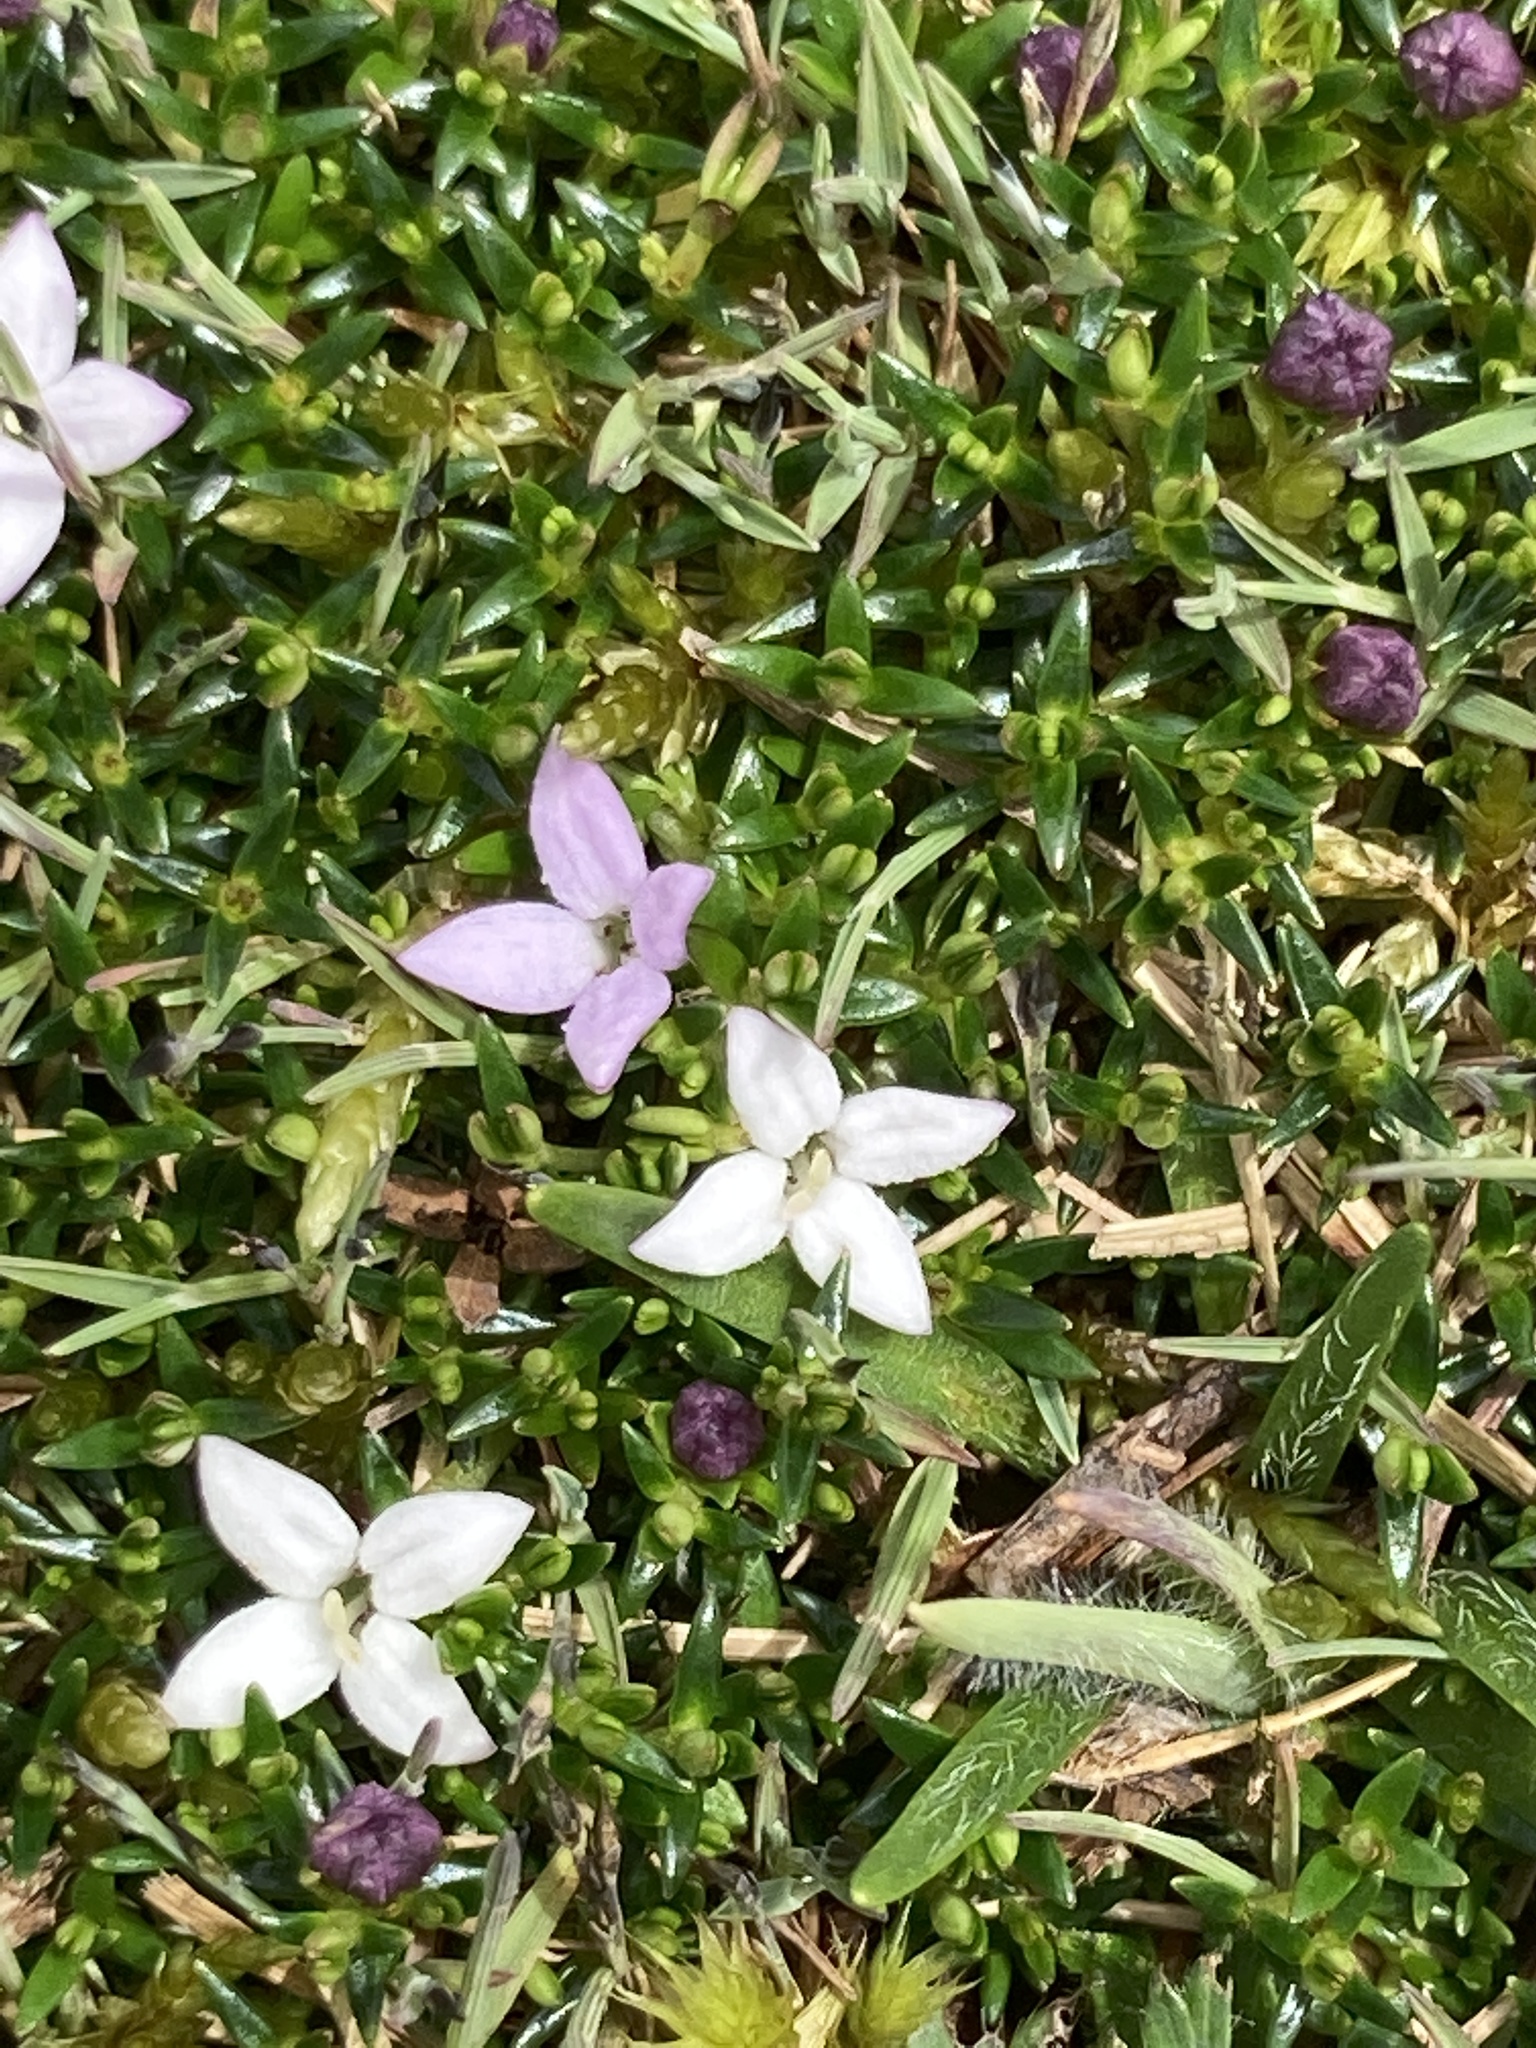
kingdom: Plantae
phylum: Tracheophyta
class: Magnoliopsida
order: Gentianales
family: Rubiaceae
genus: Arcytophyllum
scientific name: Arcytophyllum muticum
